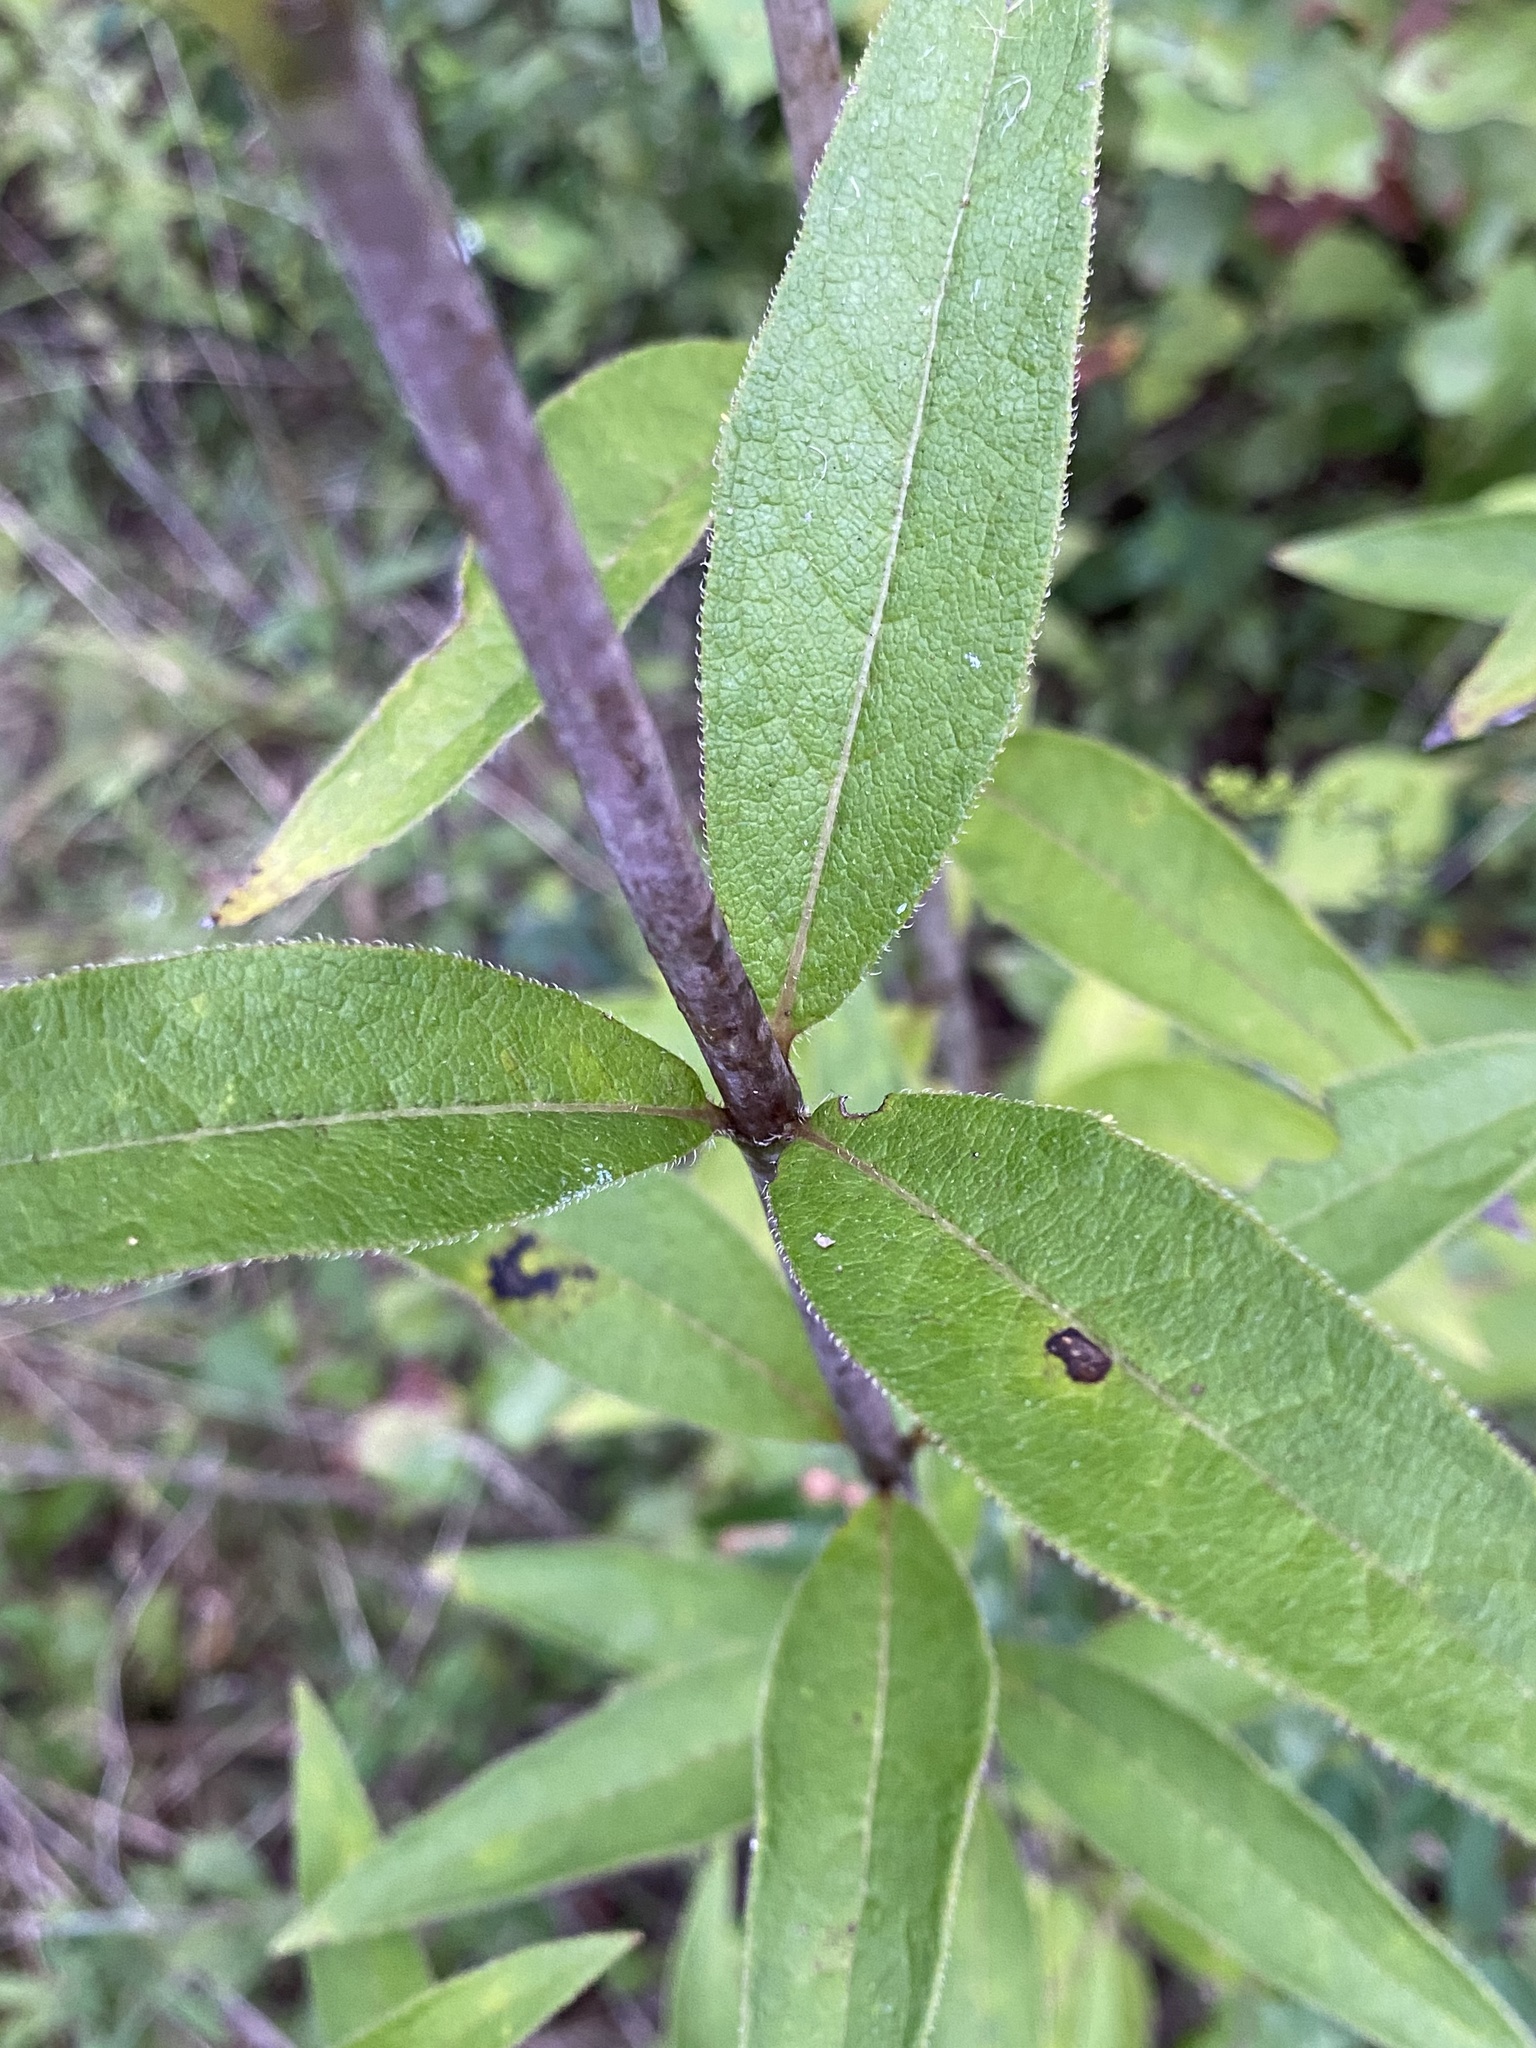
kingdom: Plantae
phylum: Tracheophyta
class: Magnoliopsida
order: Asterales
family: Asteraceae
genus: Silphium
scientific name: Silphium asteriscus
